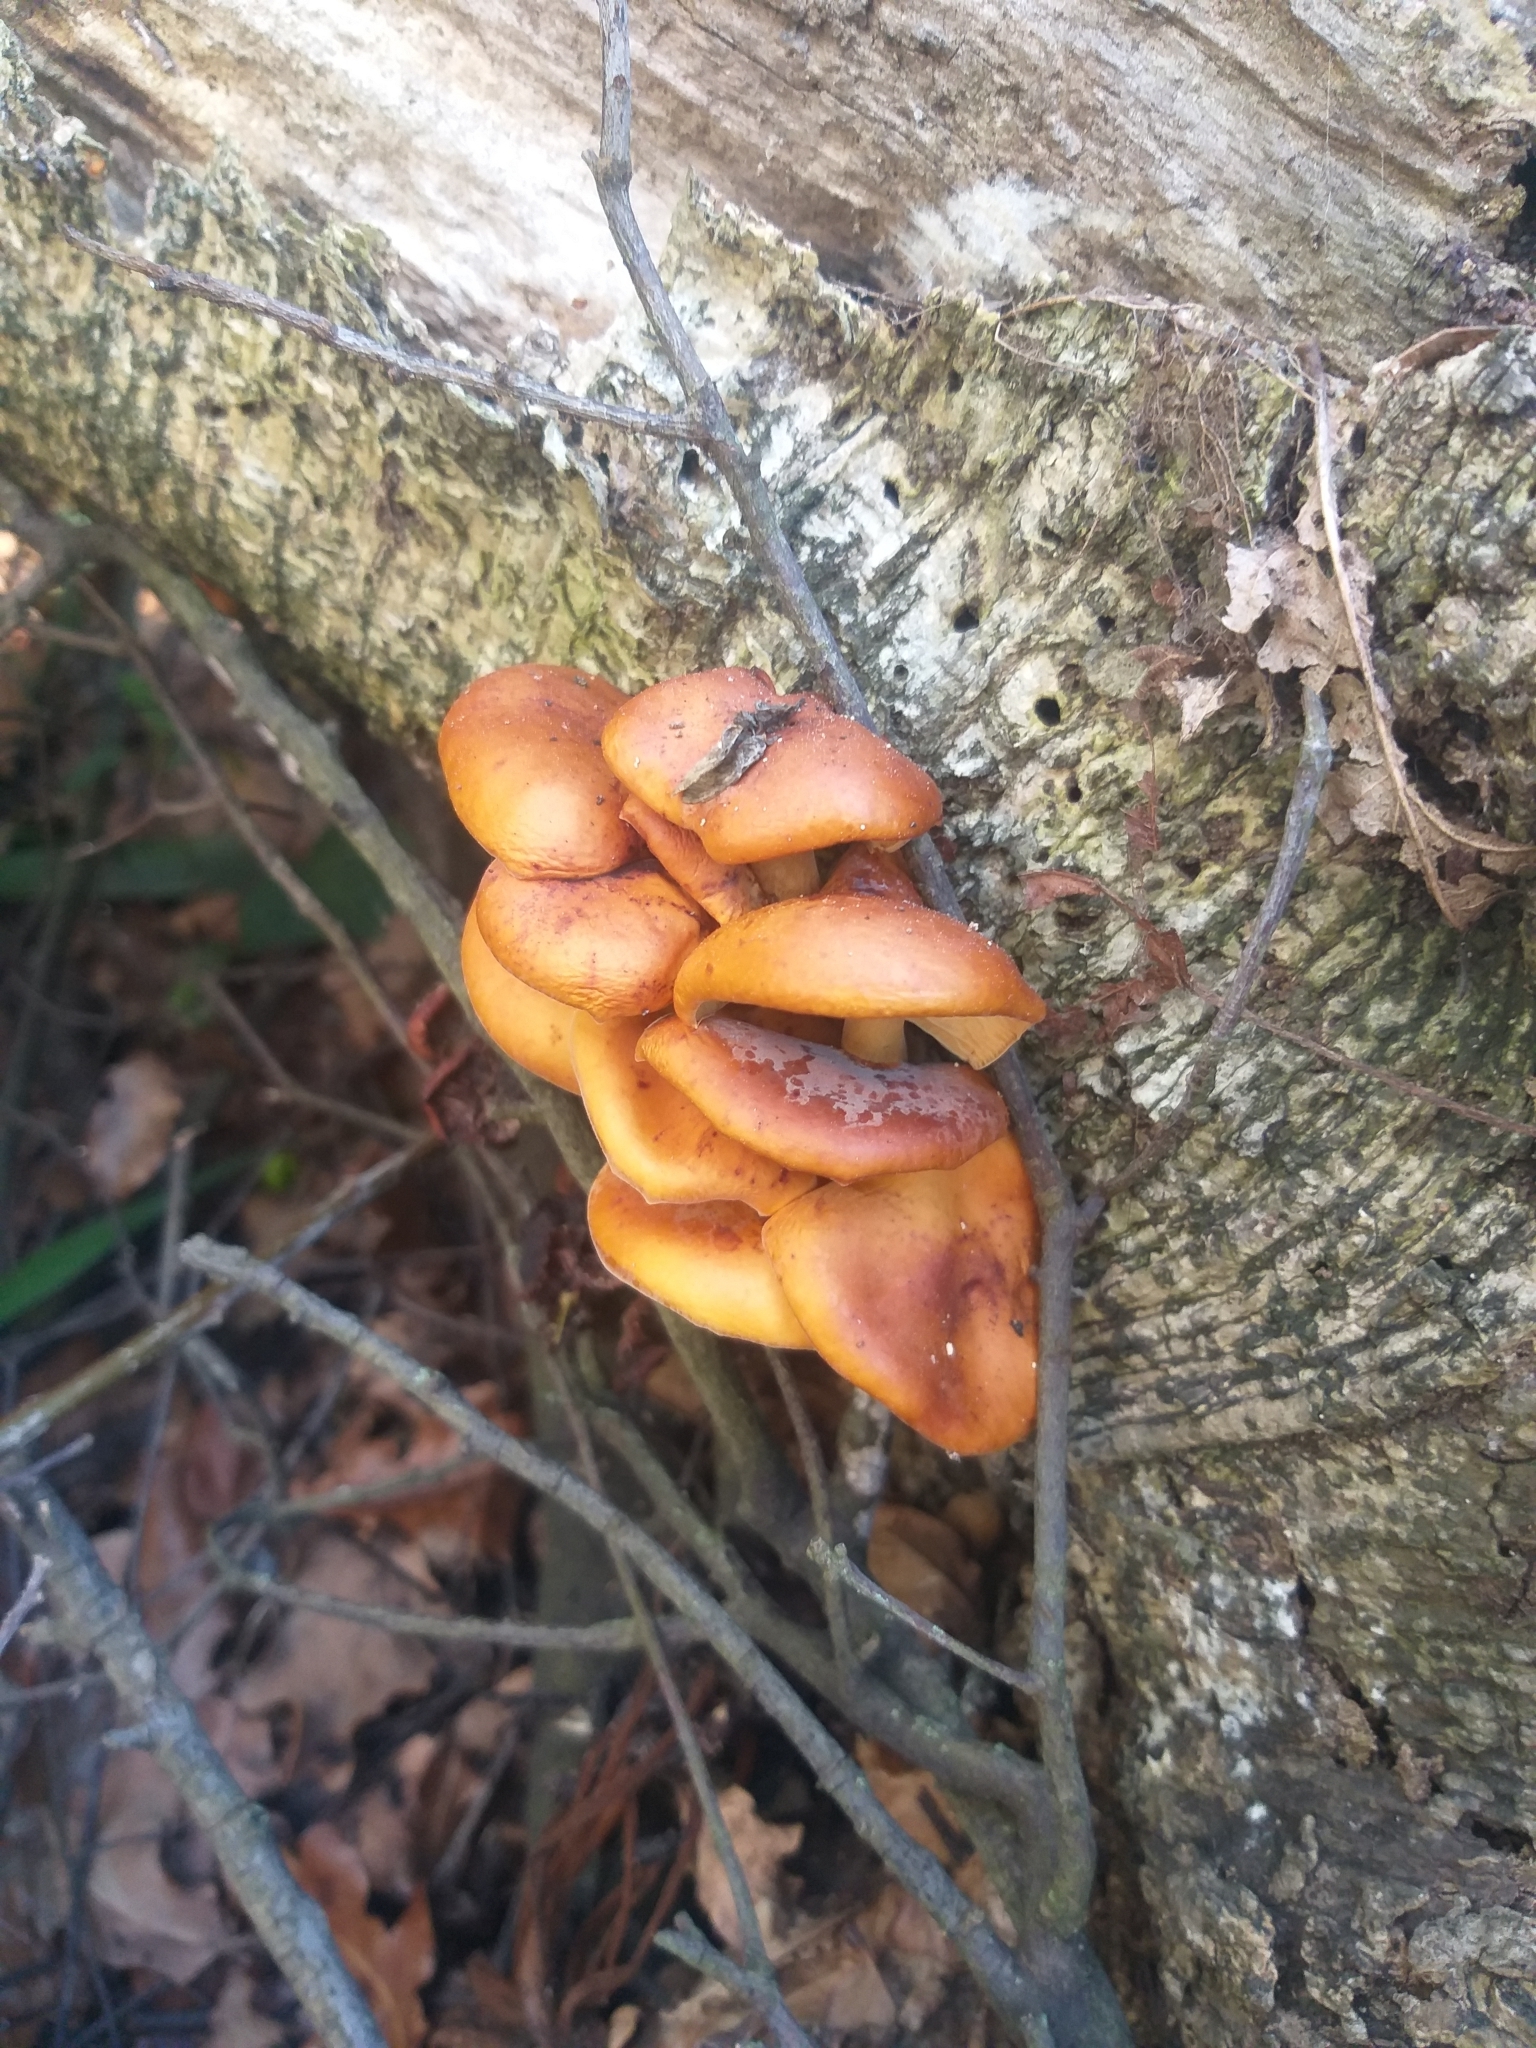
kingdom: Fungi
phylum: Basidiomycota
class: Agaricomycetes
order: Agaricales
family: Physalacriaceae
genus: Flammulina
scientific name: Flammulina velutipes
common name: Velvet shank
